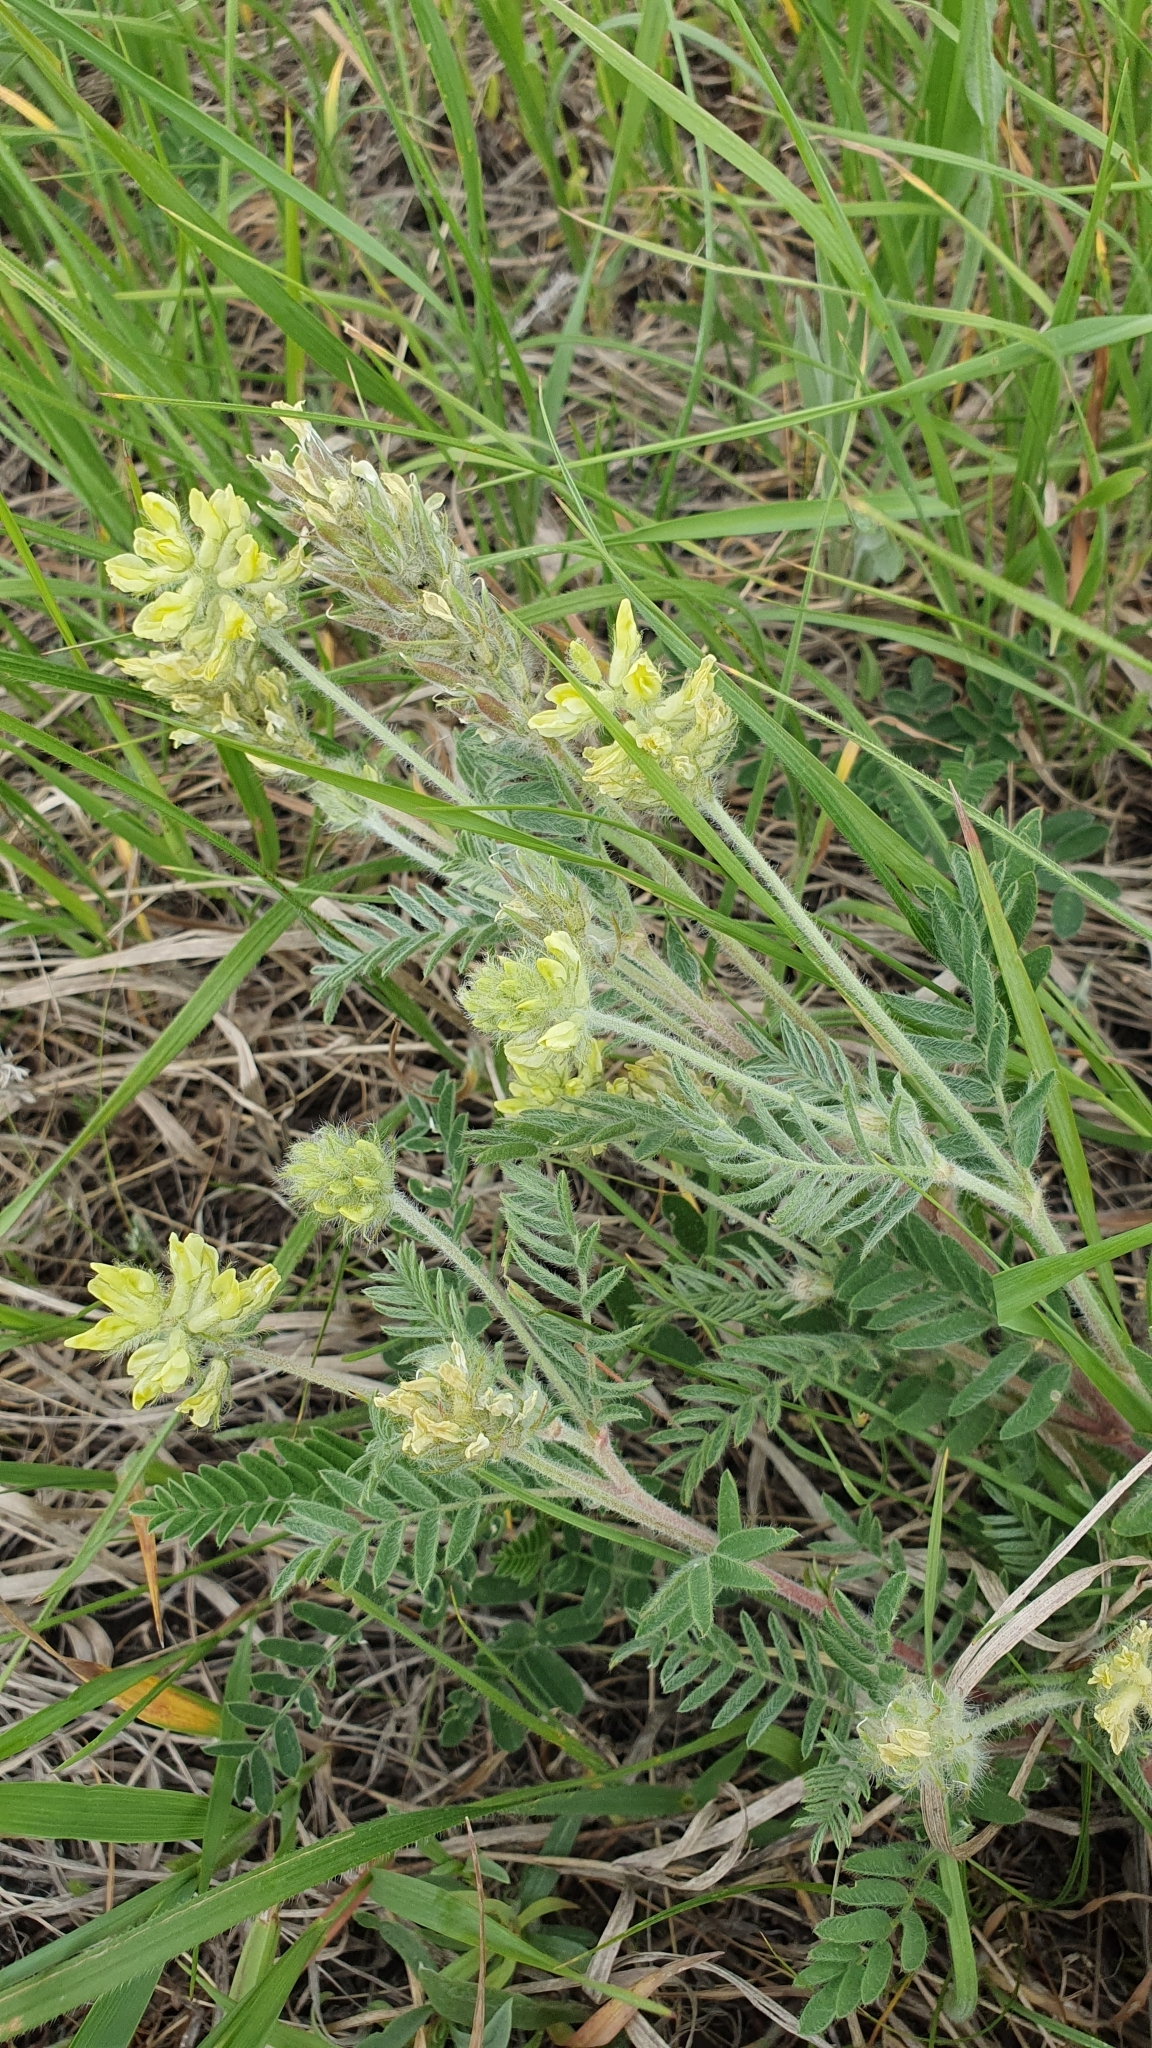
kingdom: Plantae
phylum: Tracheophyta
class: Magnoliopsida
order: Fabales
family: Fabaceae
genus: Oxytropis
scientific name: Oxytropis pilosa
